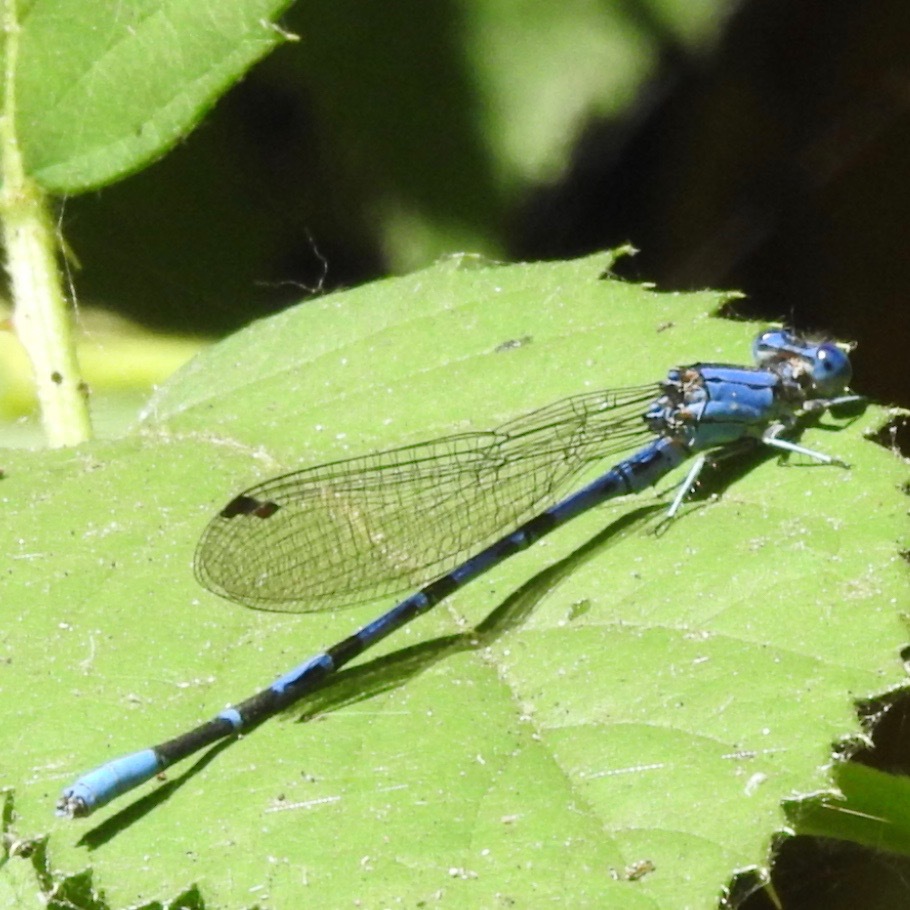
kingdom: Animalia
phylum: Arthropoda
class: Insecta
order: Odonata
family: Coenagrionidae
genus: Argia
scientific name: Argia vivida
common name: Vivid dancer
